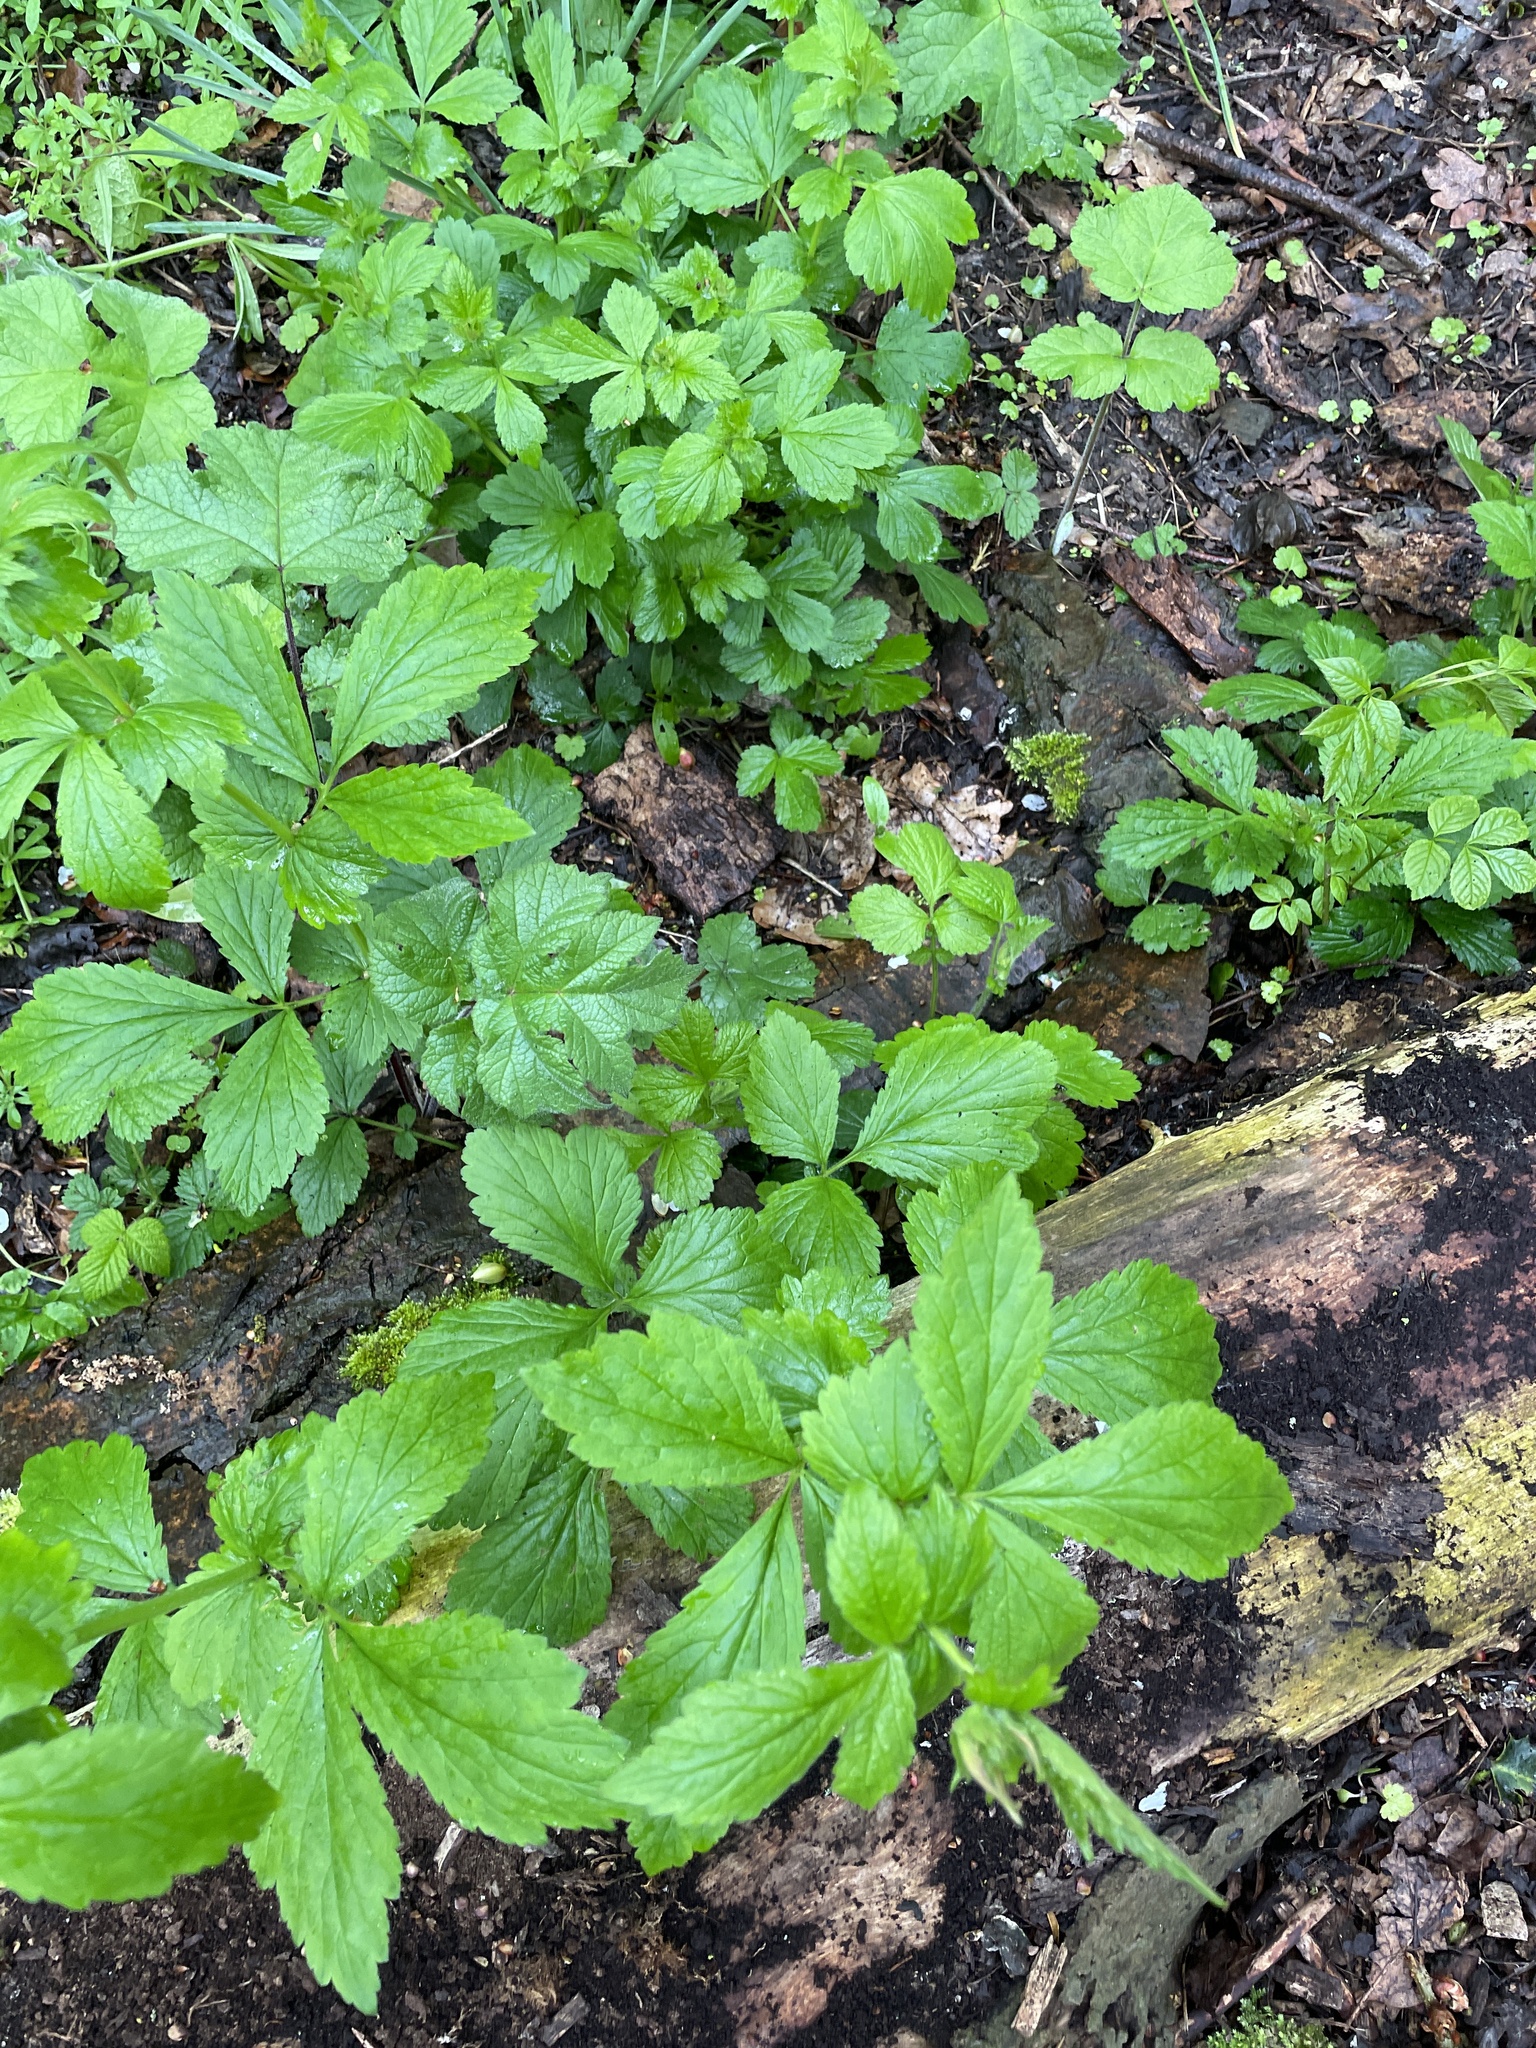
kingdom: Plantae
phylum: Tracheophyta
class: Magnoliopsida
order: Rosales
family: Rosaceae
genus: Geum
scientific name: Geum urbanum
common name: Wood avens
